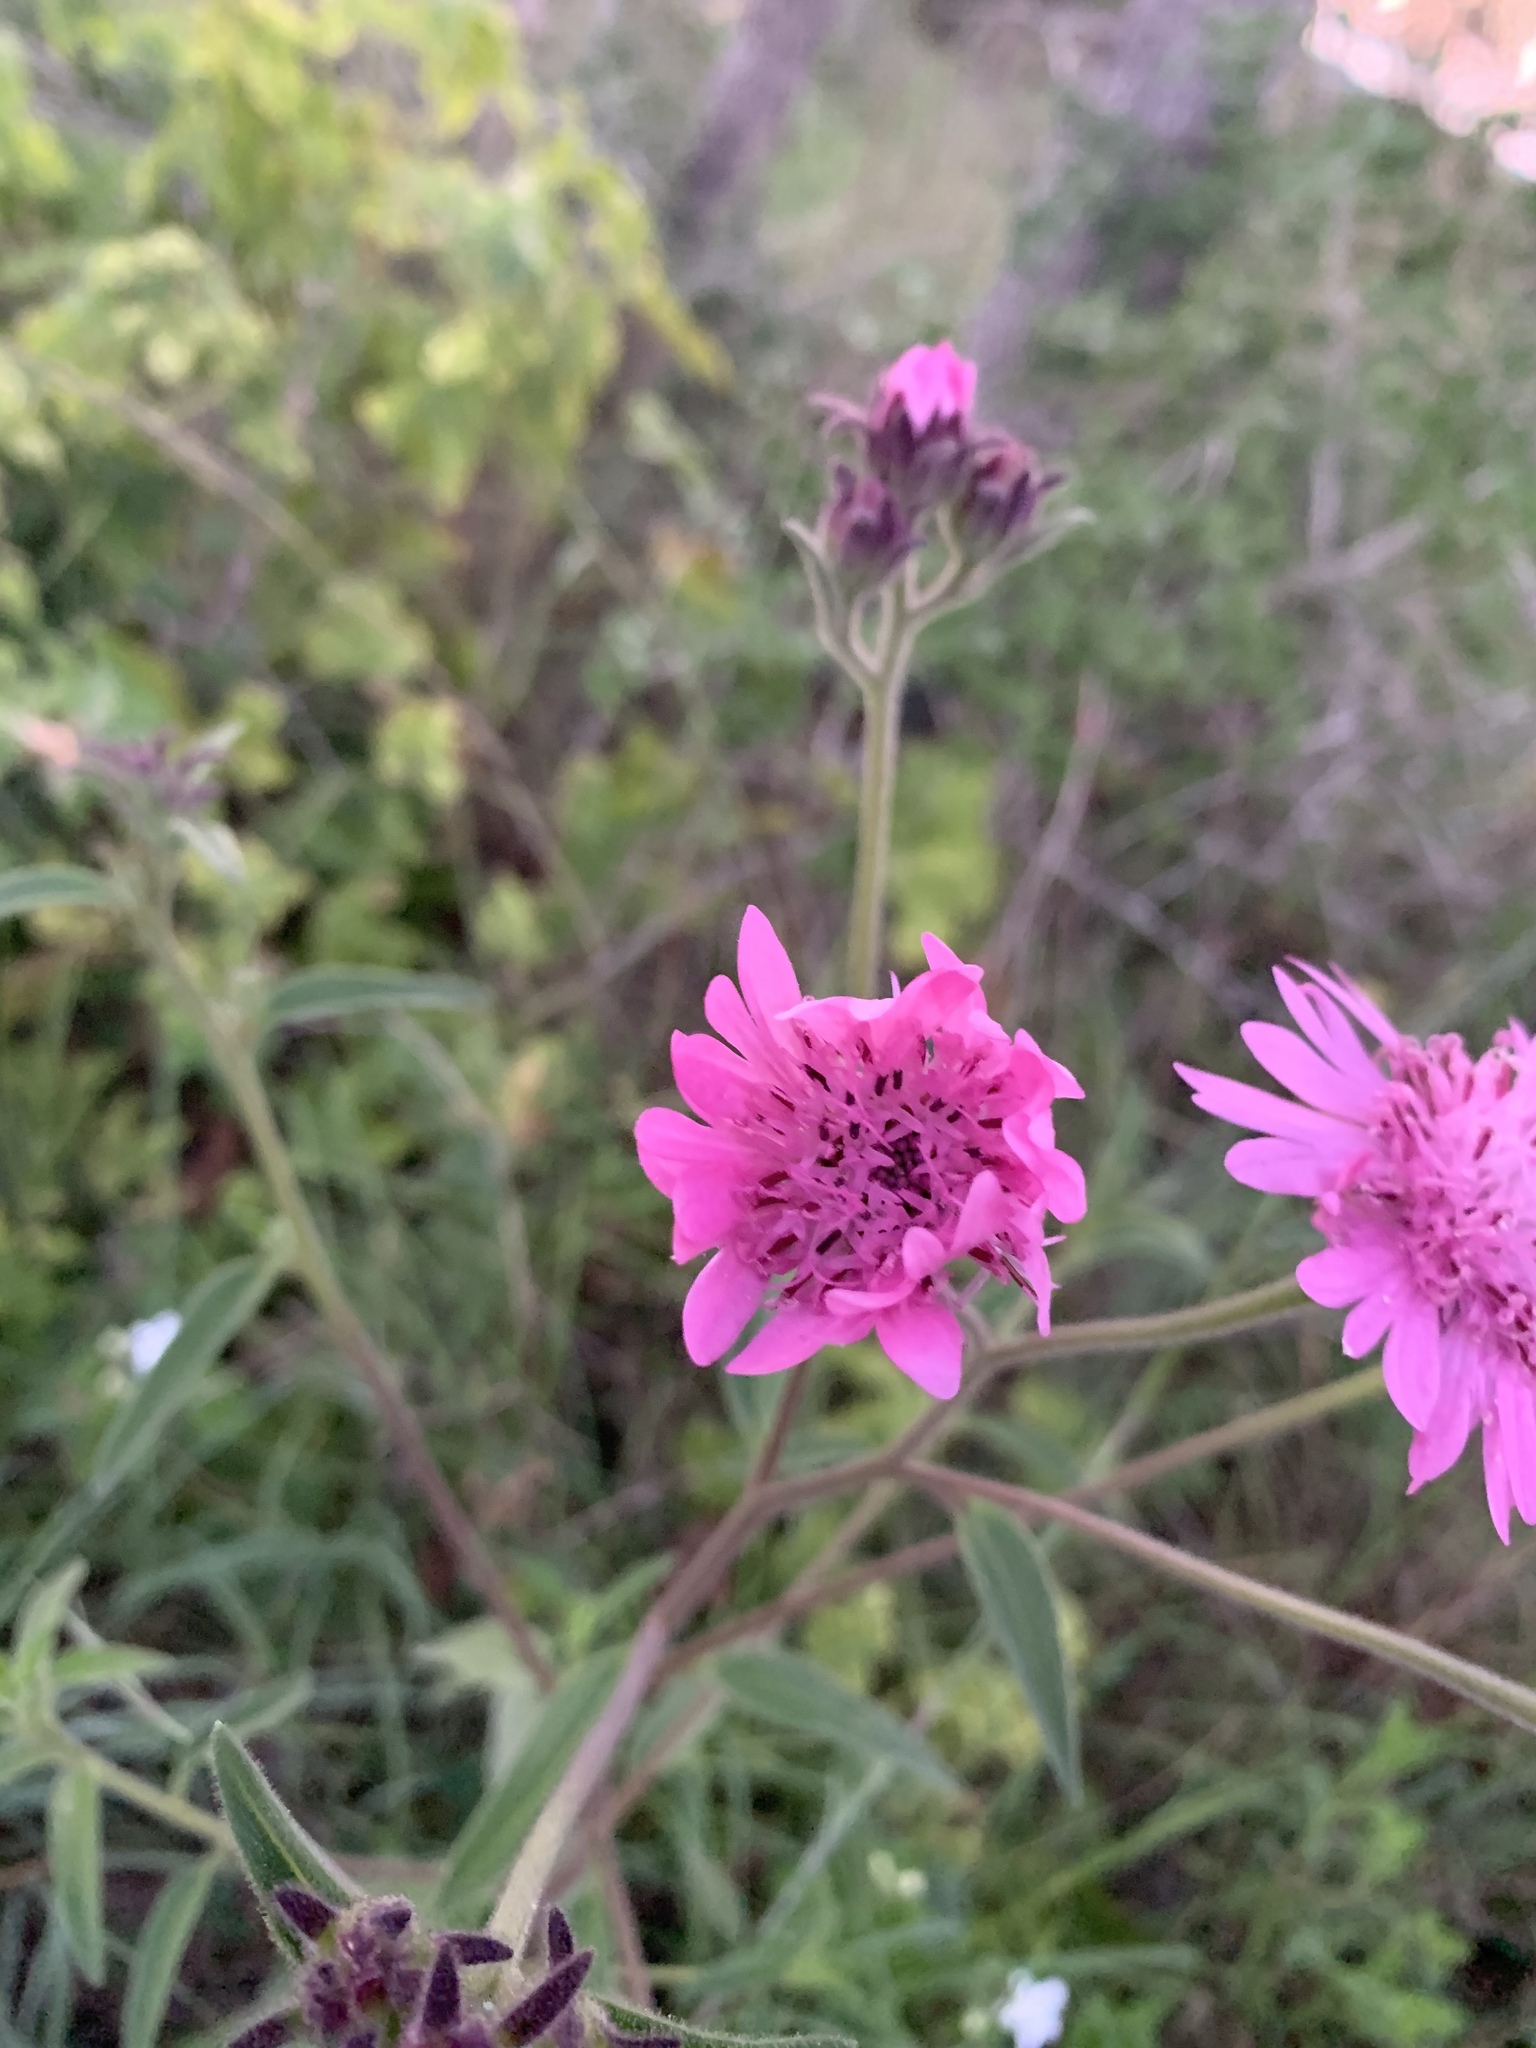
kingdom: Plantae
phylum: Tracheophyta
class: Magnoliopsida
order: Asterales
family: Asteraceae
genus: Palafoxia
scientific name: Palafoxia hookeriana
